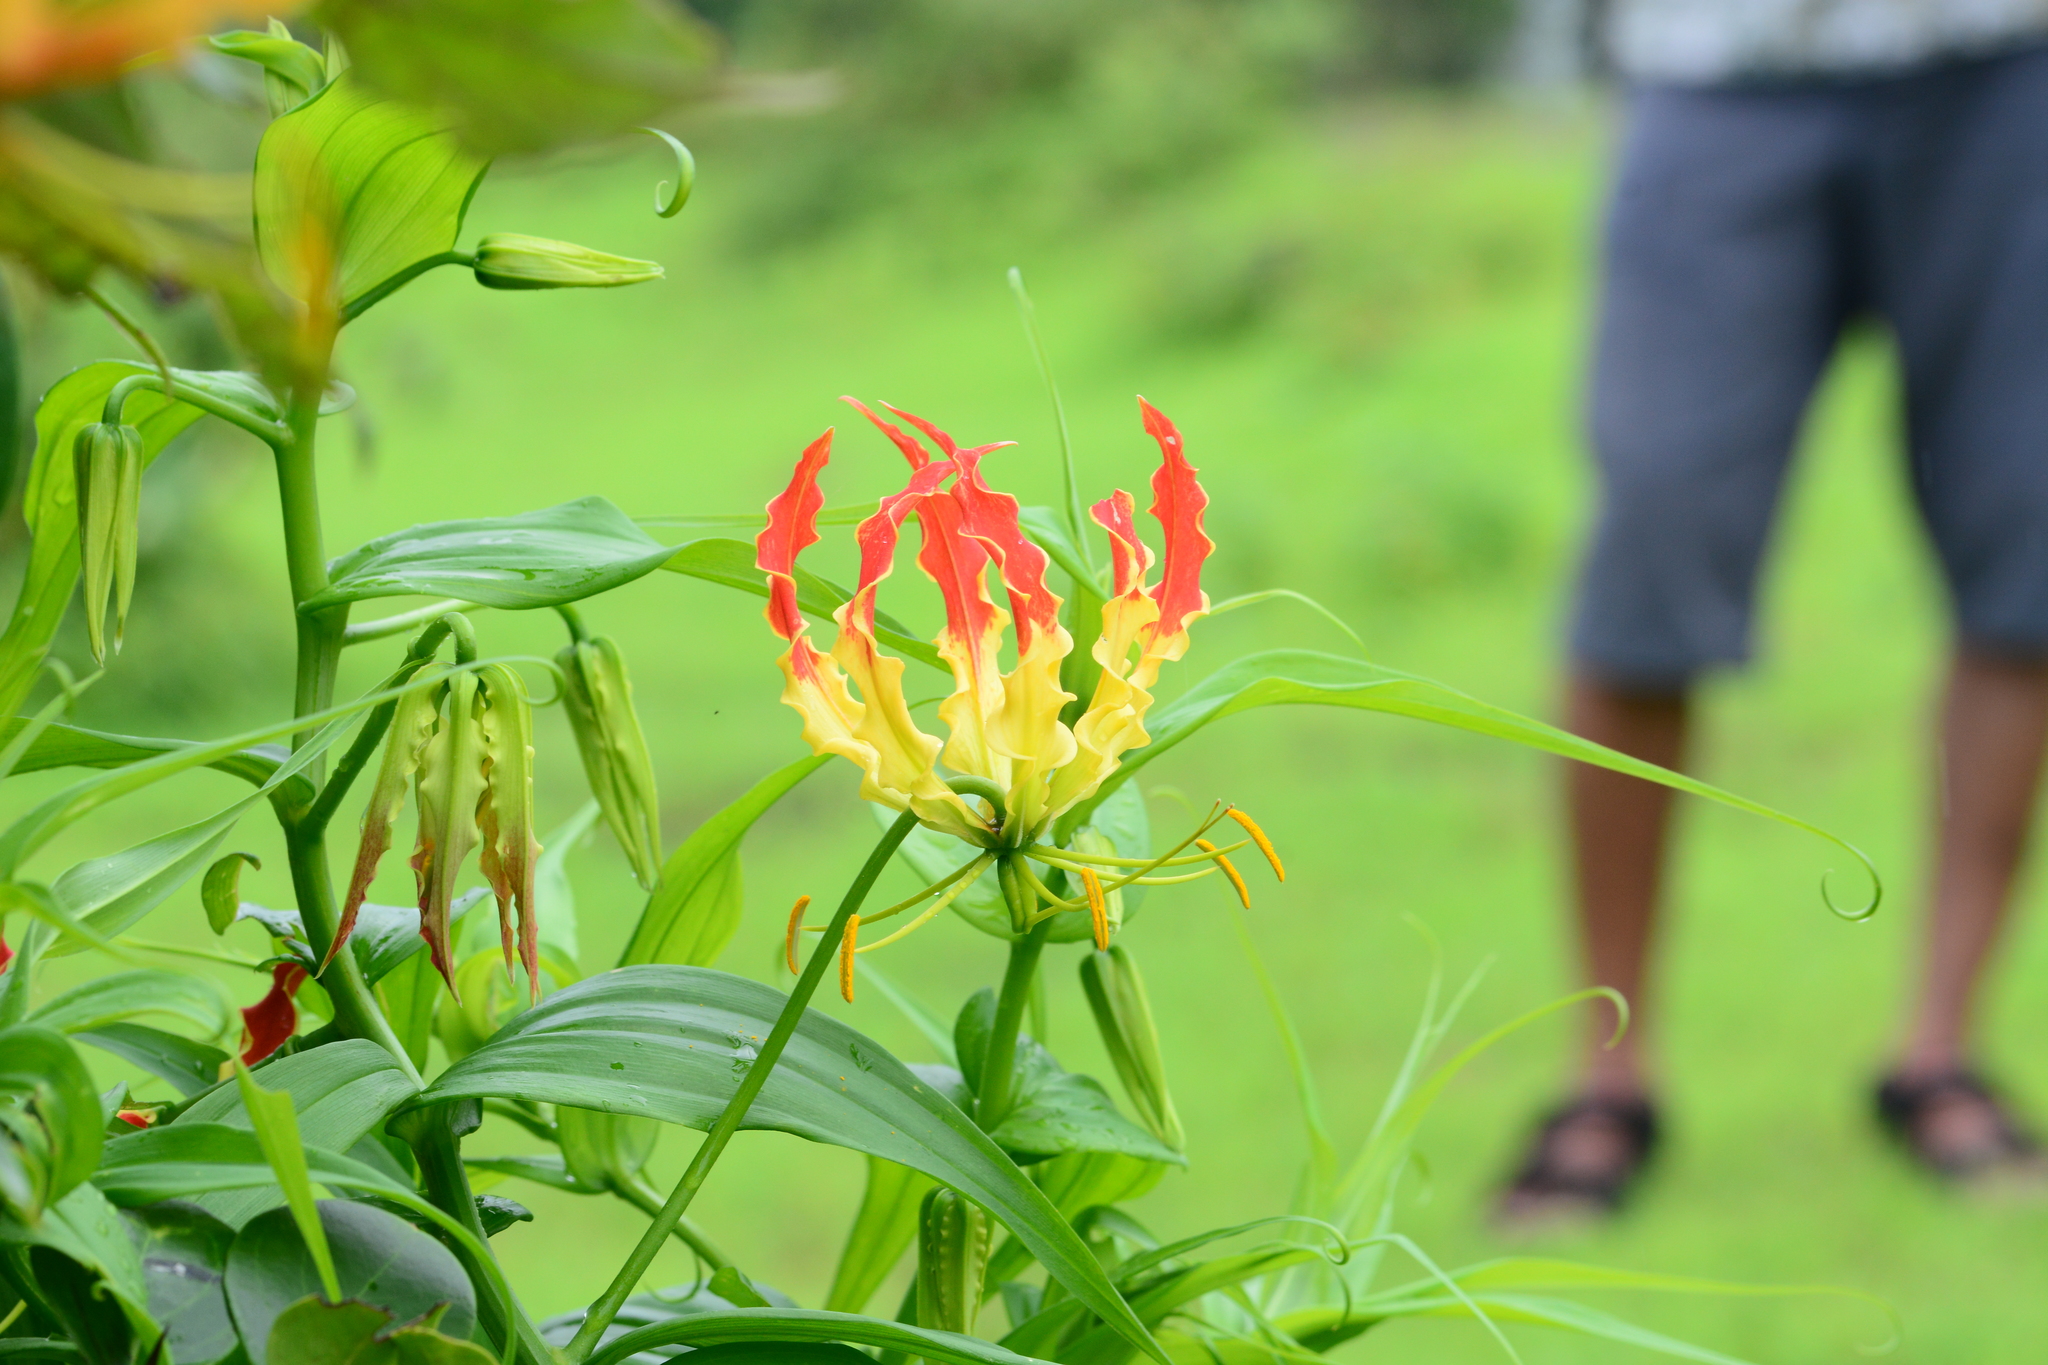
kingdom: Plantae
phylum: Tracheophyta
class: Liliopsida
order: Liliales
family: Colchicaceae
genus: Gloriosa
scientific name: Gloriosa superba
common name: Flame lily
